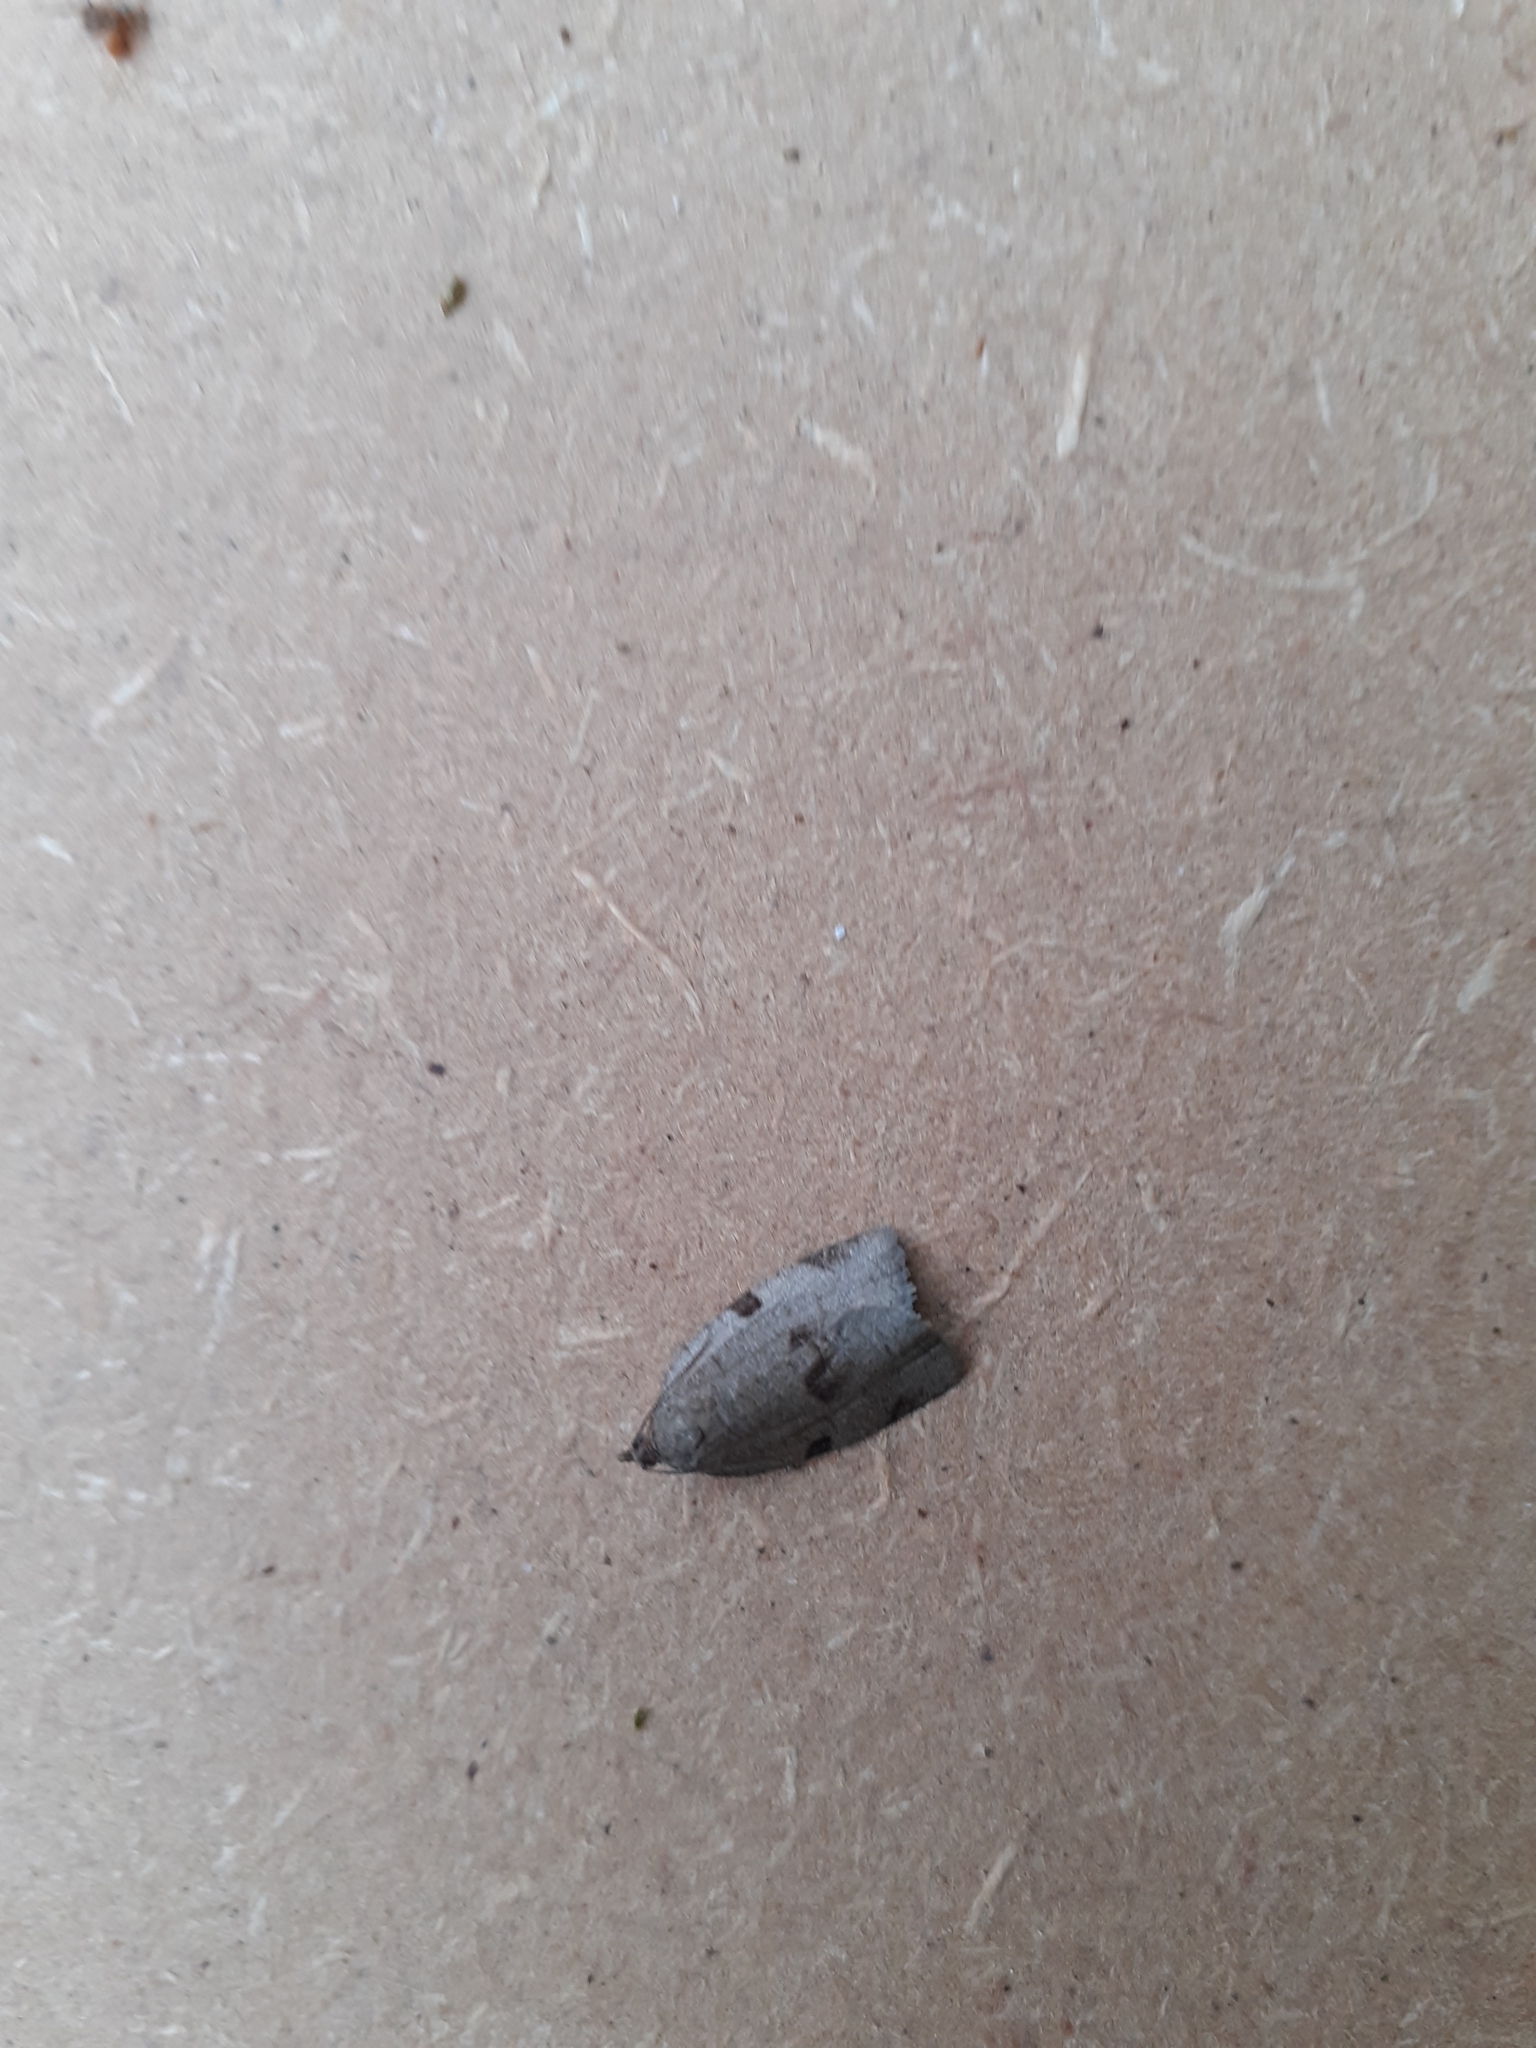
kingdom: Animalia
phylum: Arthropoda
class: Insecta
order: Lepidoptera
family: Tortricidae
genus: Lozotaenia
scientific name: Lozotaenia forsterana
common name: Large ivy twist
